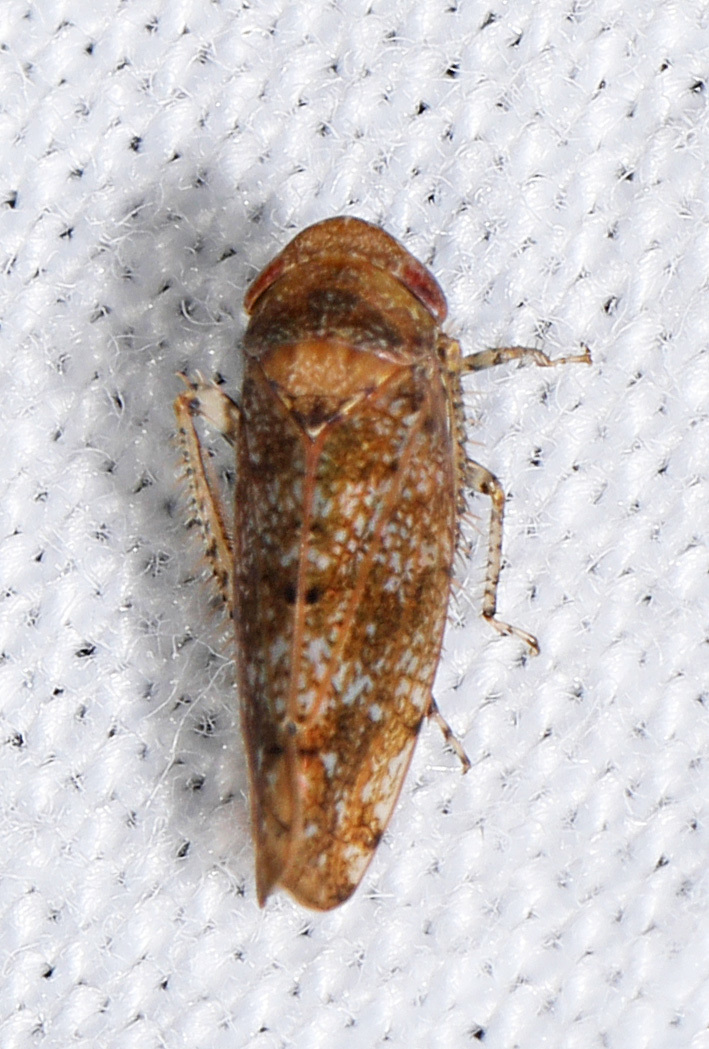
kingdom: Animalia
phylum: Arthropoda
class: Insecta
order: Hemiptera
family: Cicadellidae
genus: Paraphlepsius
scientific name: Paraphlepsius
